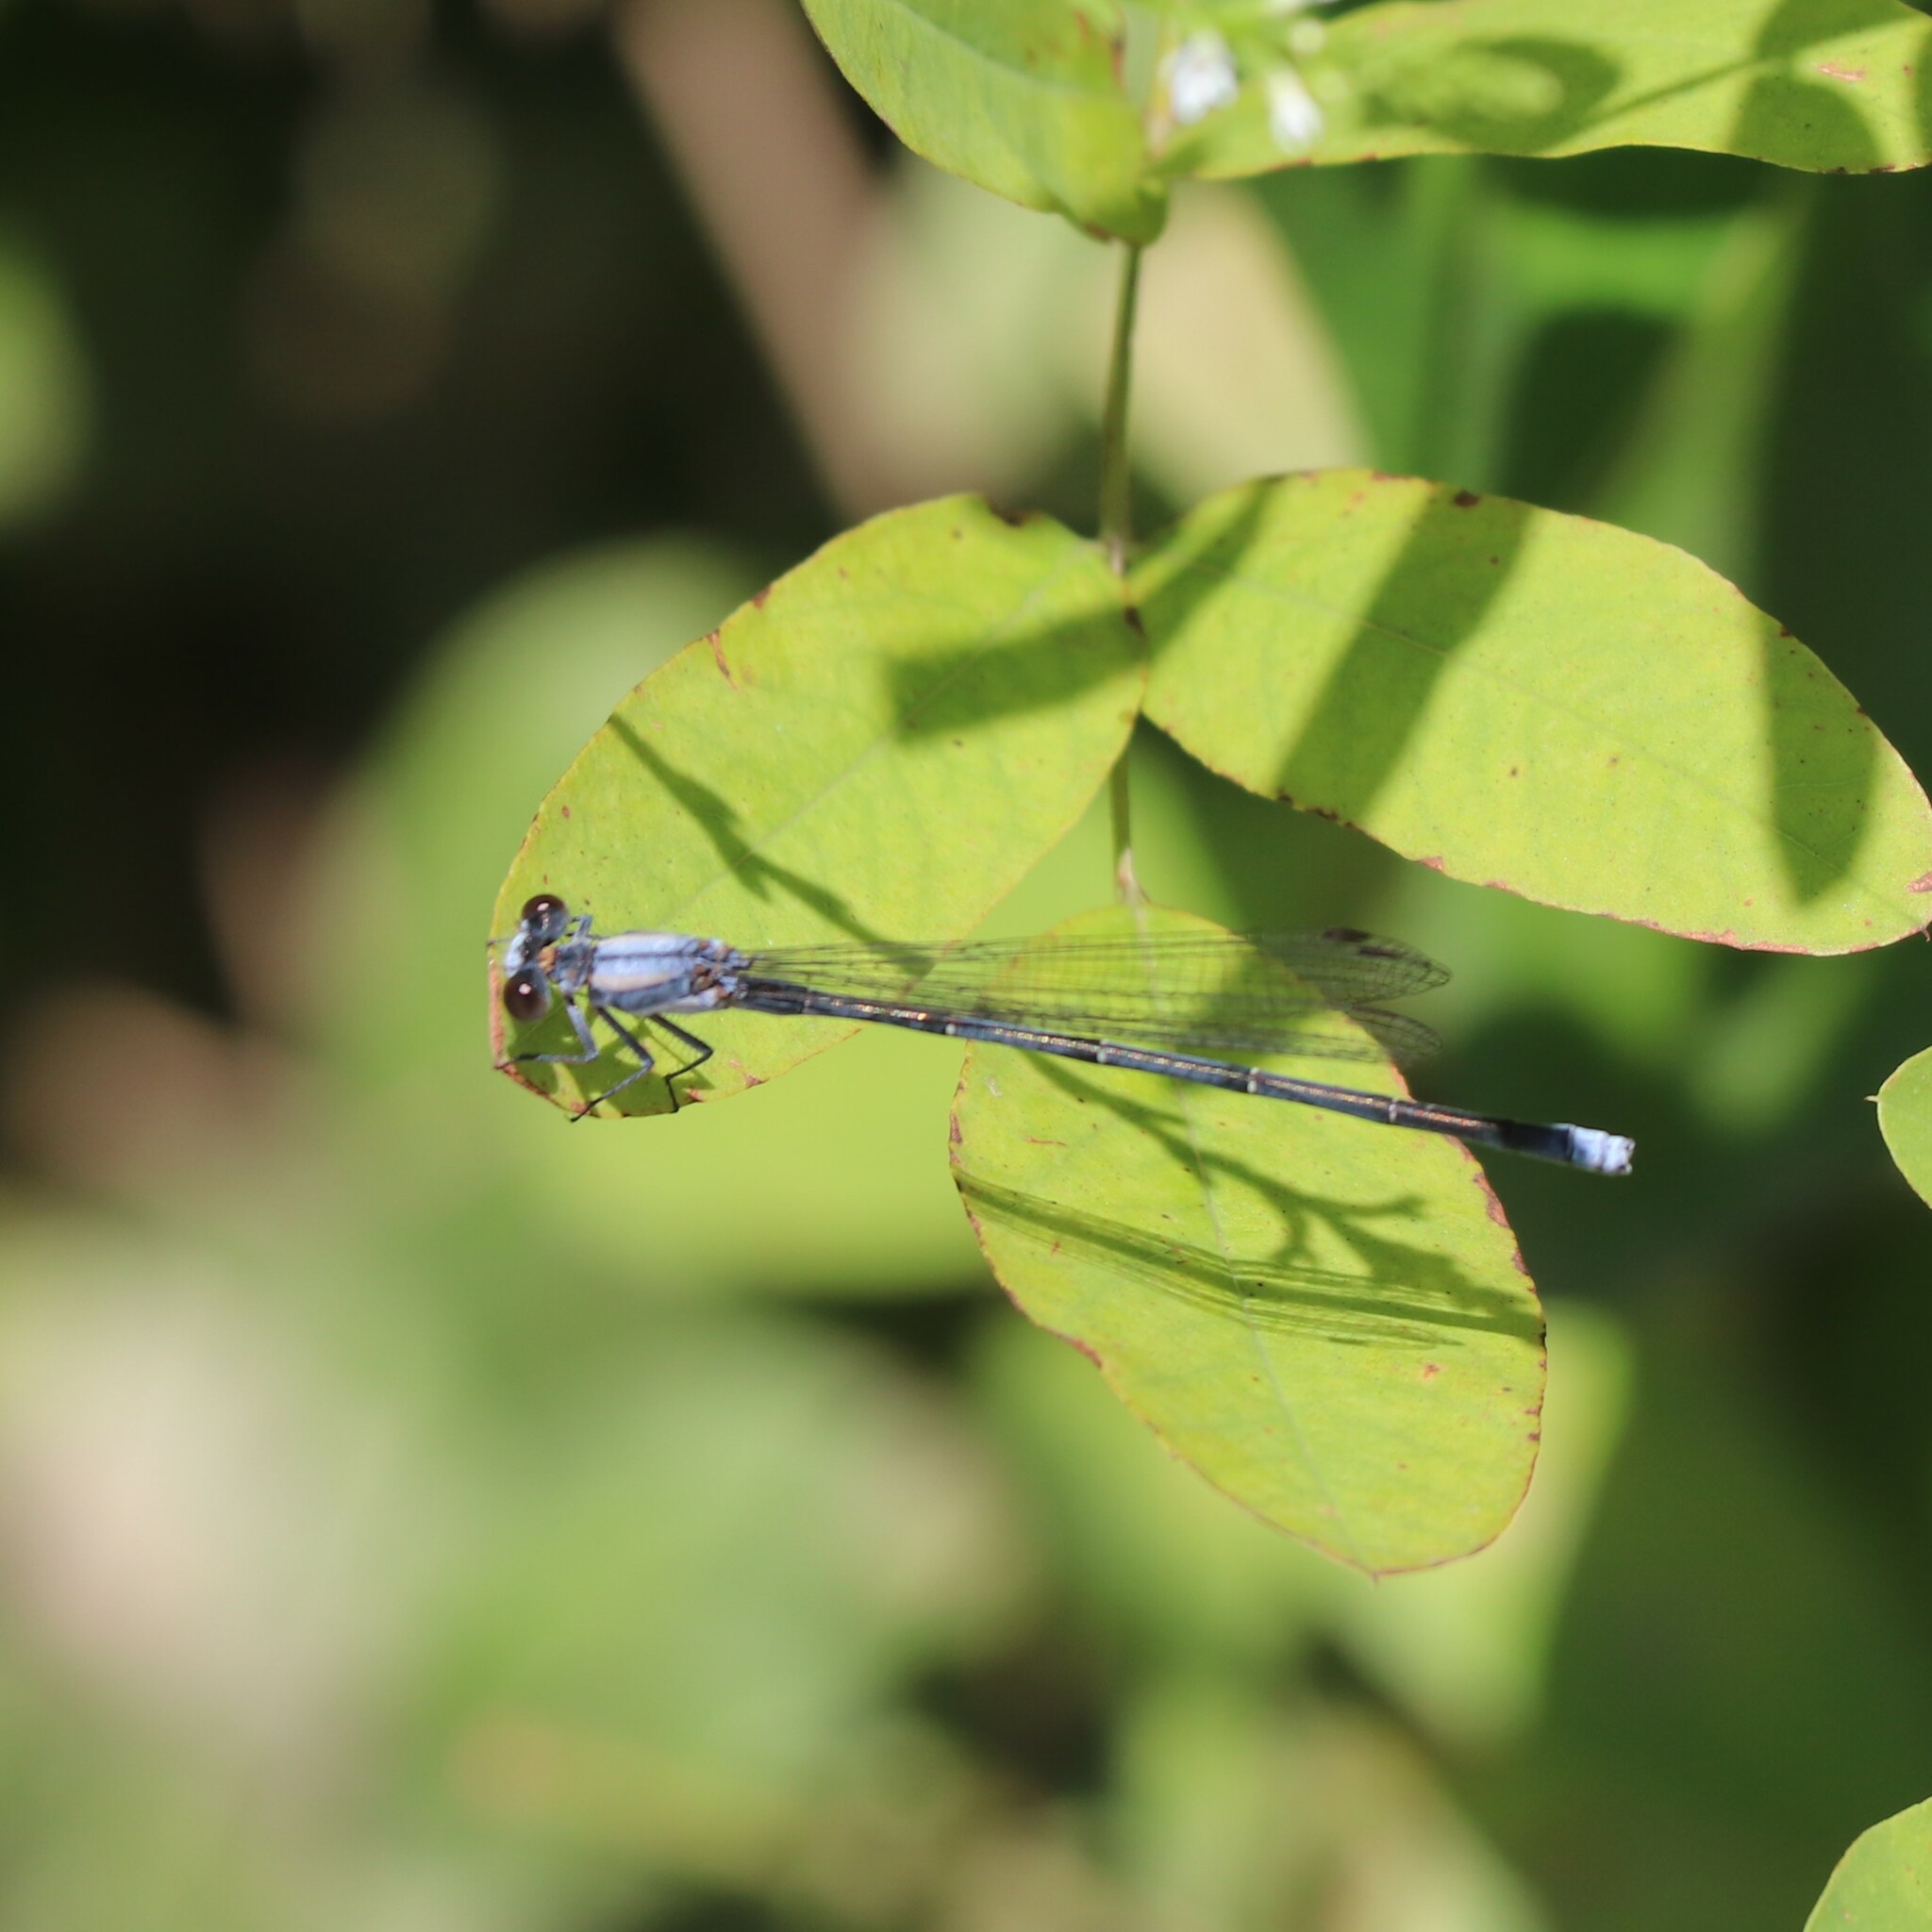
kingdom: Animalia
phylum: Arthropoda
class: Insecta
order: Odonata
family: Coenagrionidae
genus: Argia
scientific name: Argia moesta
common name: Powdered dancer
